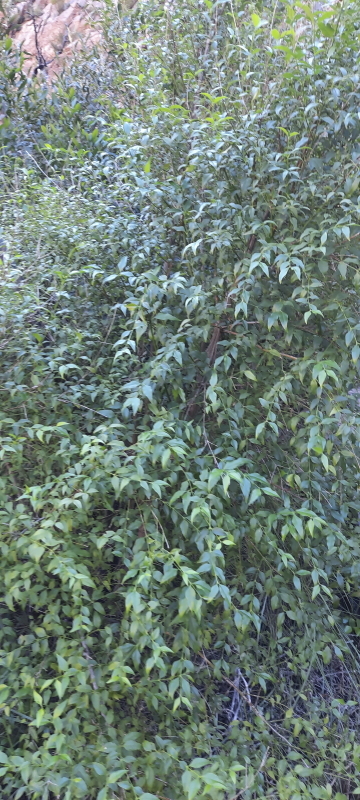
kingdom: Plantae
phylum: Tracheophyta
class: Magnoliopsida
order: Lamiales
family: Stilbaceae
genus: Halleria
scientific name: Halleria lucida
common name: Tree fuschia
